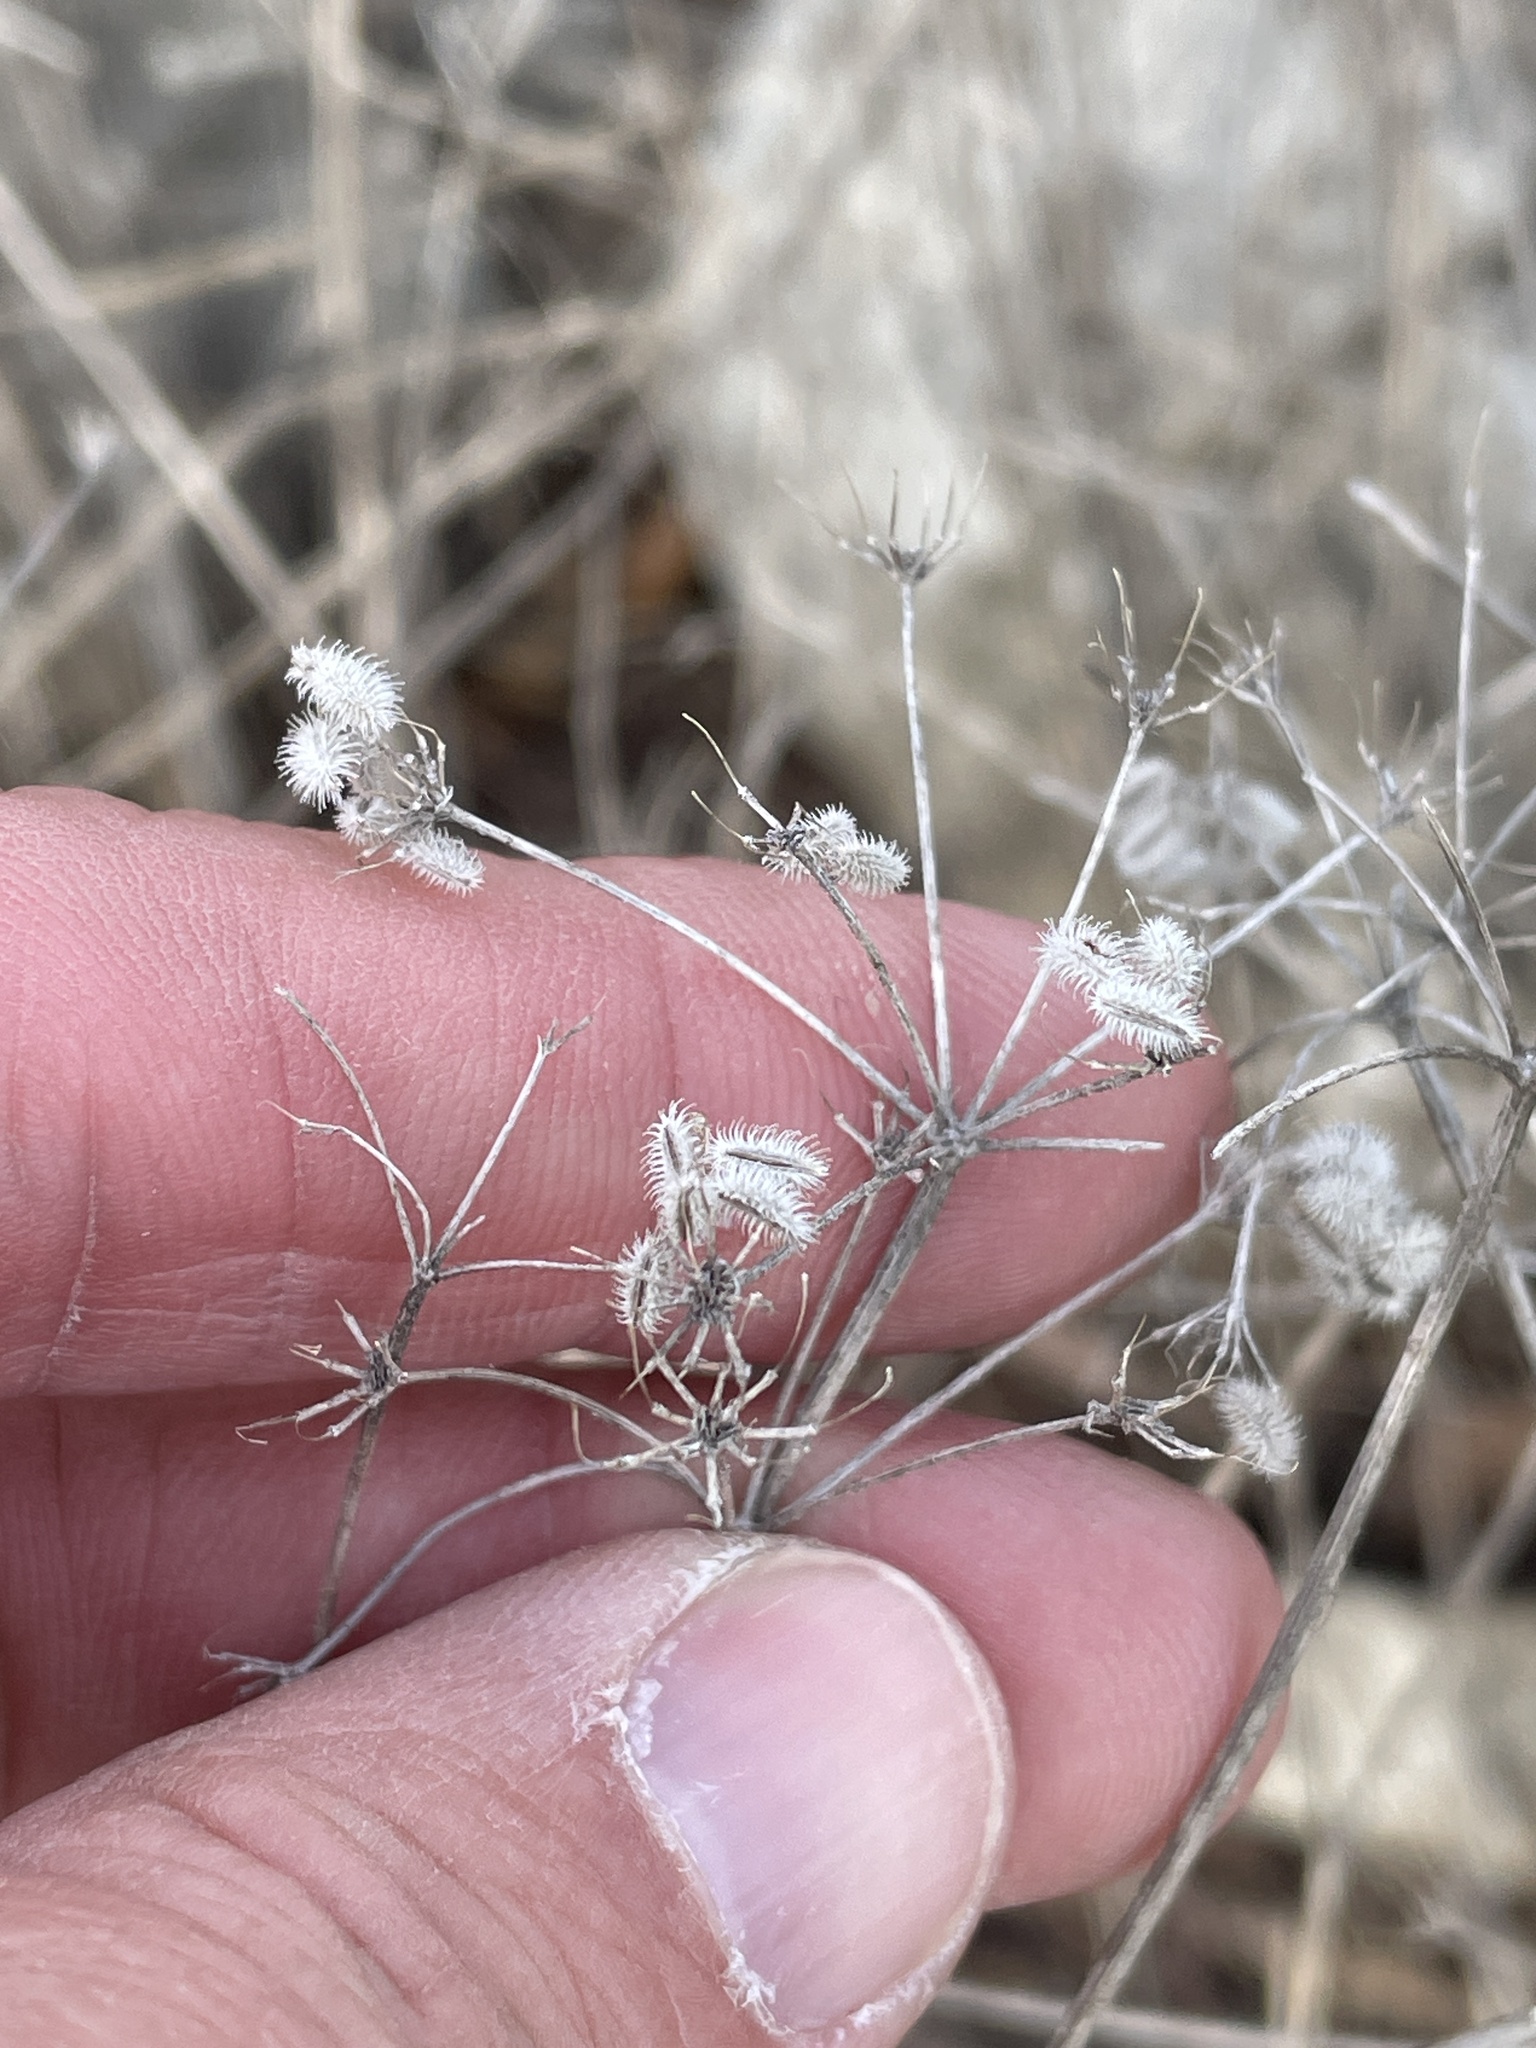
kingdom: Plantae
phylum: Tracheophyta
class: Magnoliopsida
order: Apiales
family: Apiaceae
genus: Torilis
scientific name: Torilis arvensis
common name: Spreading hedge-parsley
